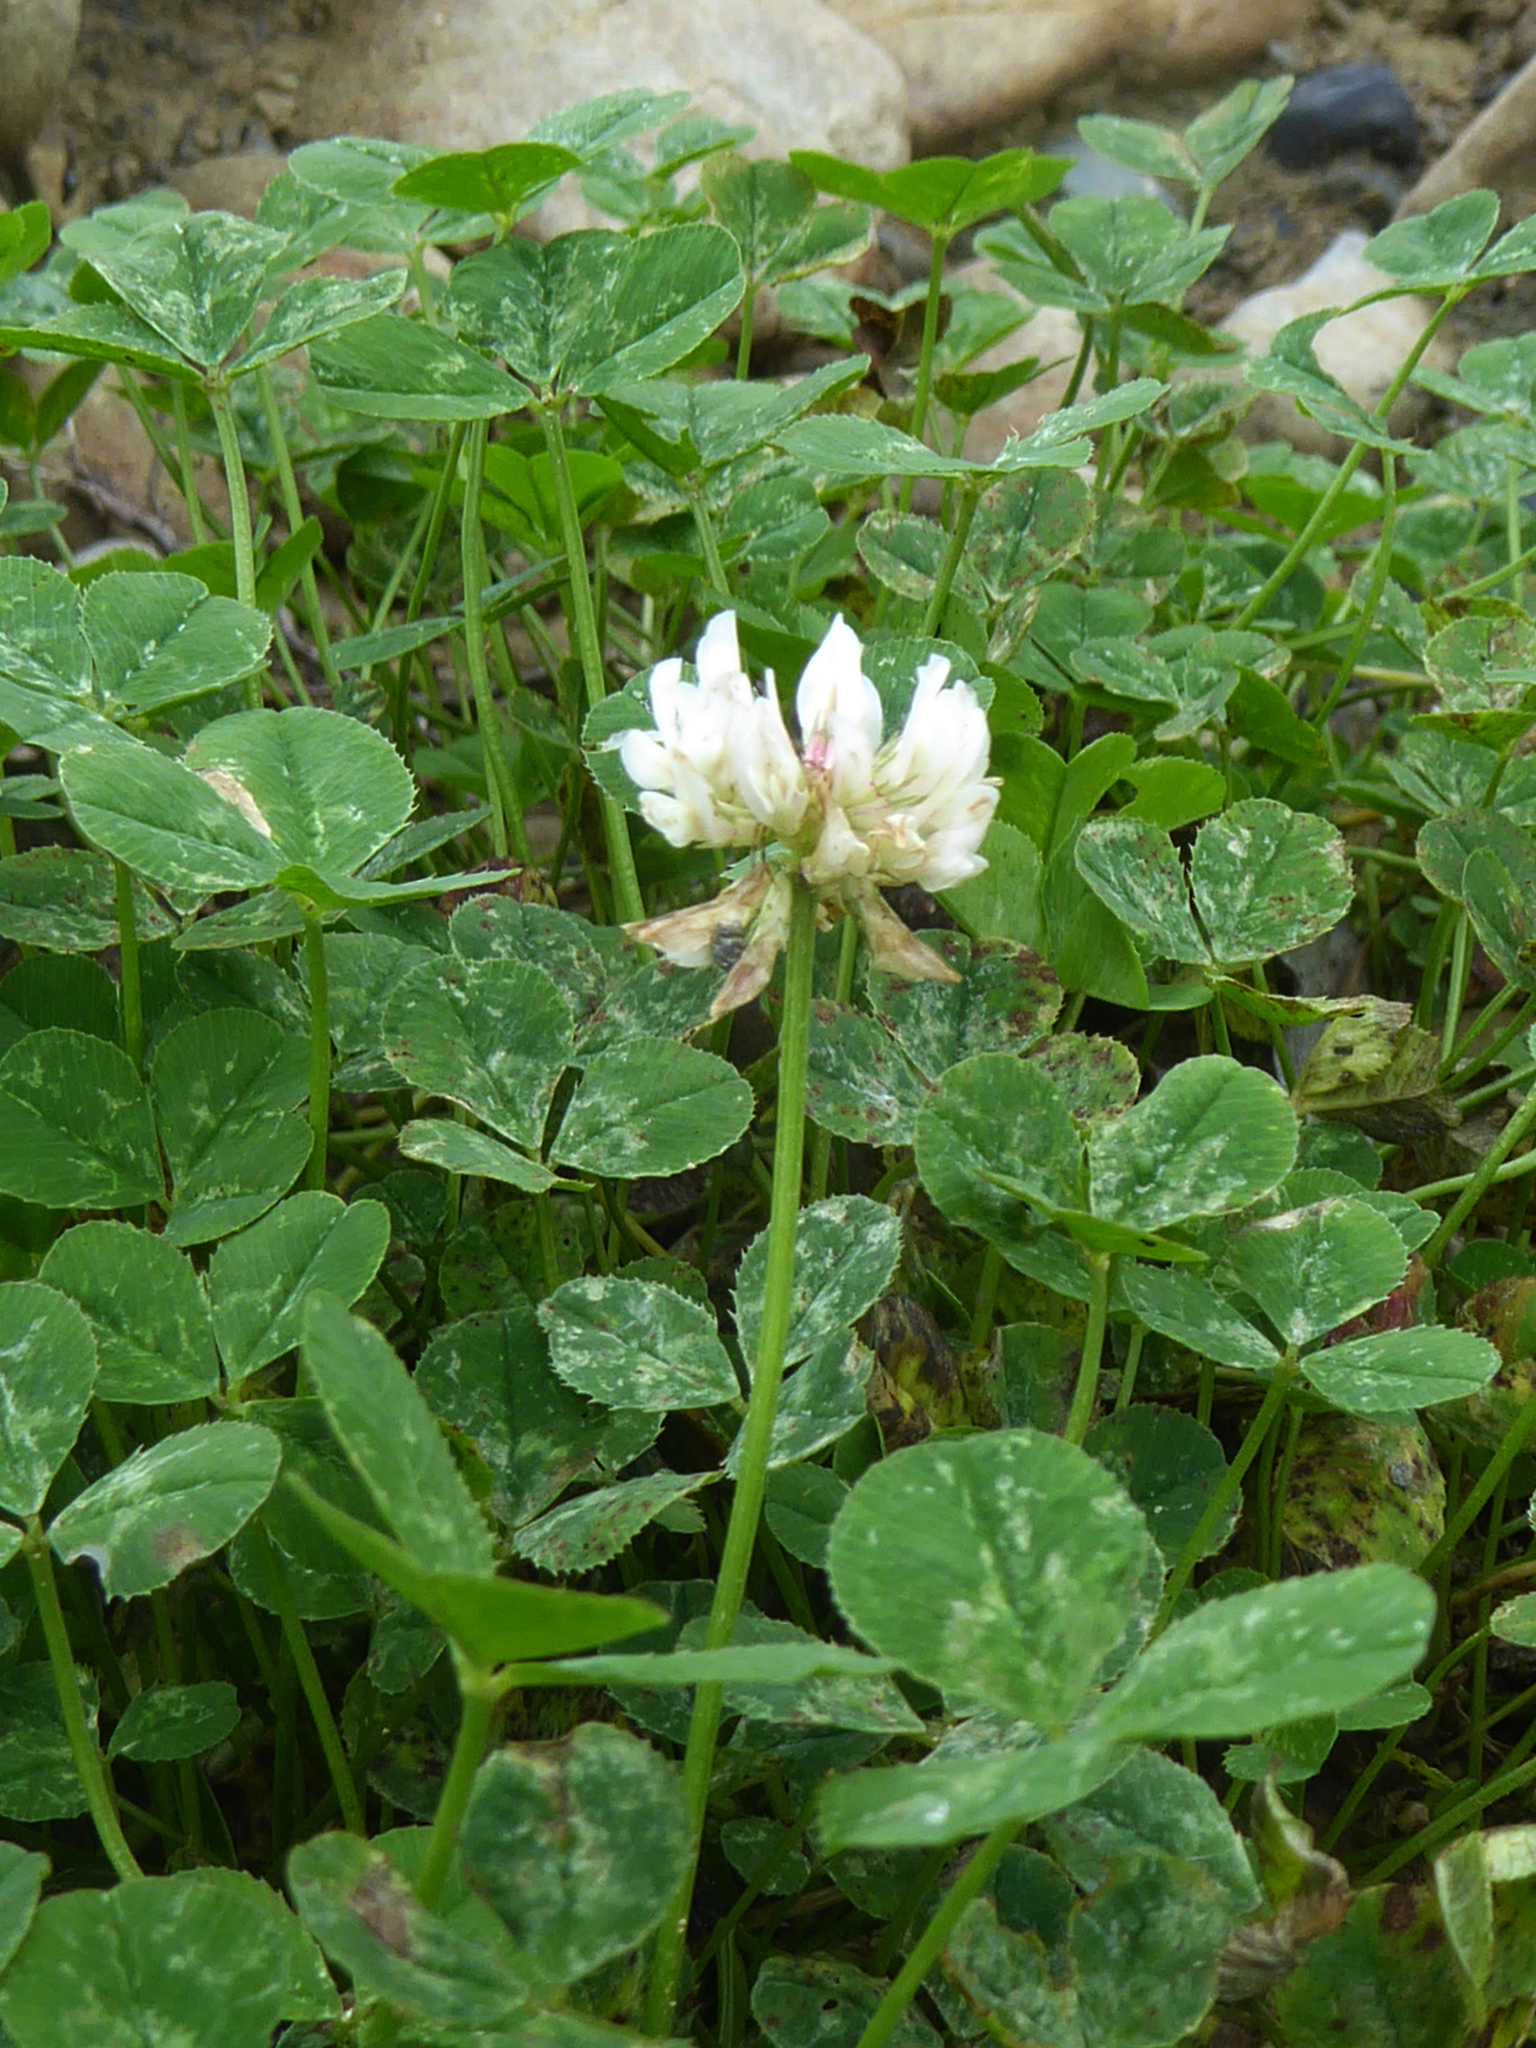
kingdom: Plantae
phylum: Tracheophyta
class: Magnoliopsida
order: Fabales
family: Fabaceae
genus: Trifolium
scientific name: Trifolium repens
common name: White clover
